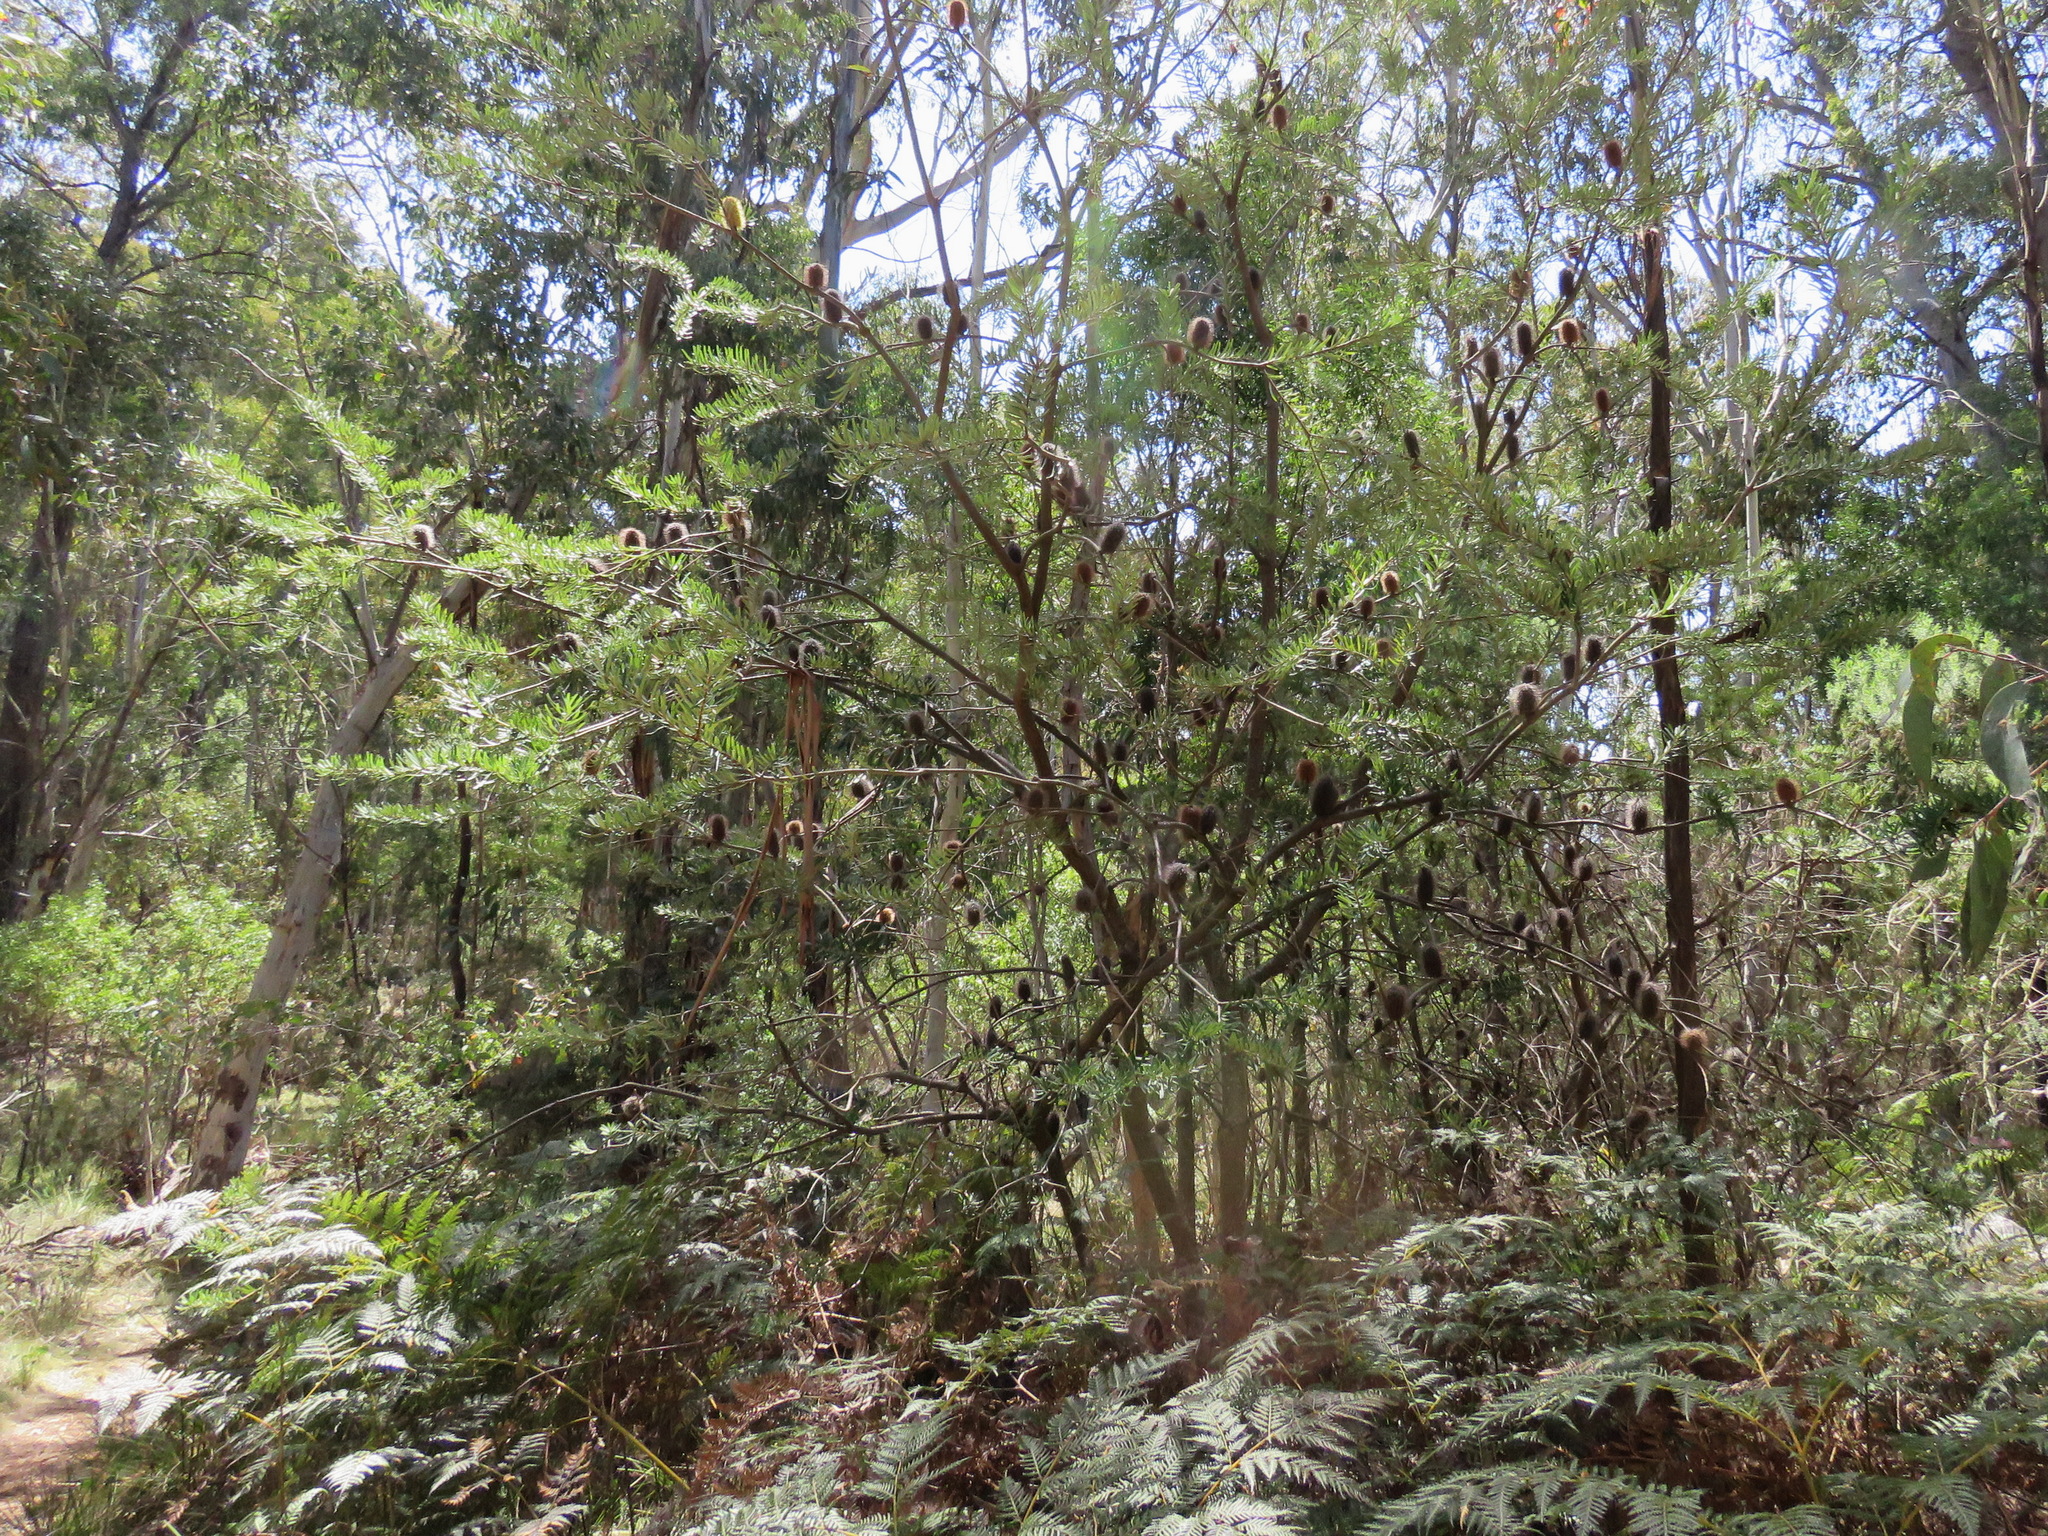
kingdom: Plantae
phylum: Tracheophyta
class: Magnoliopsida
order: Proteales
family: Proteaceae
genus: Banksia
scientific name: Banksia marginata
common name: Silver banksia
